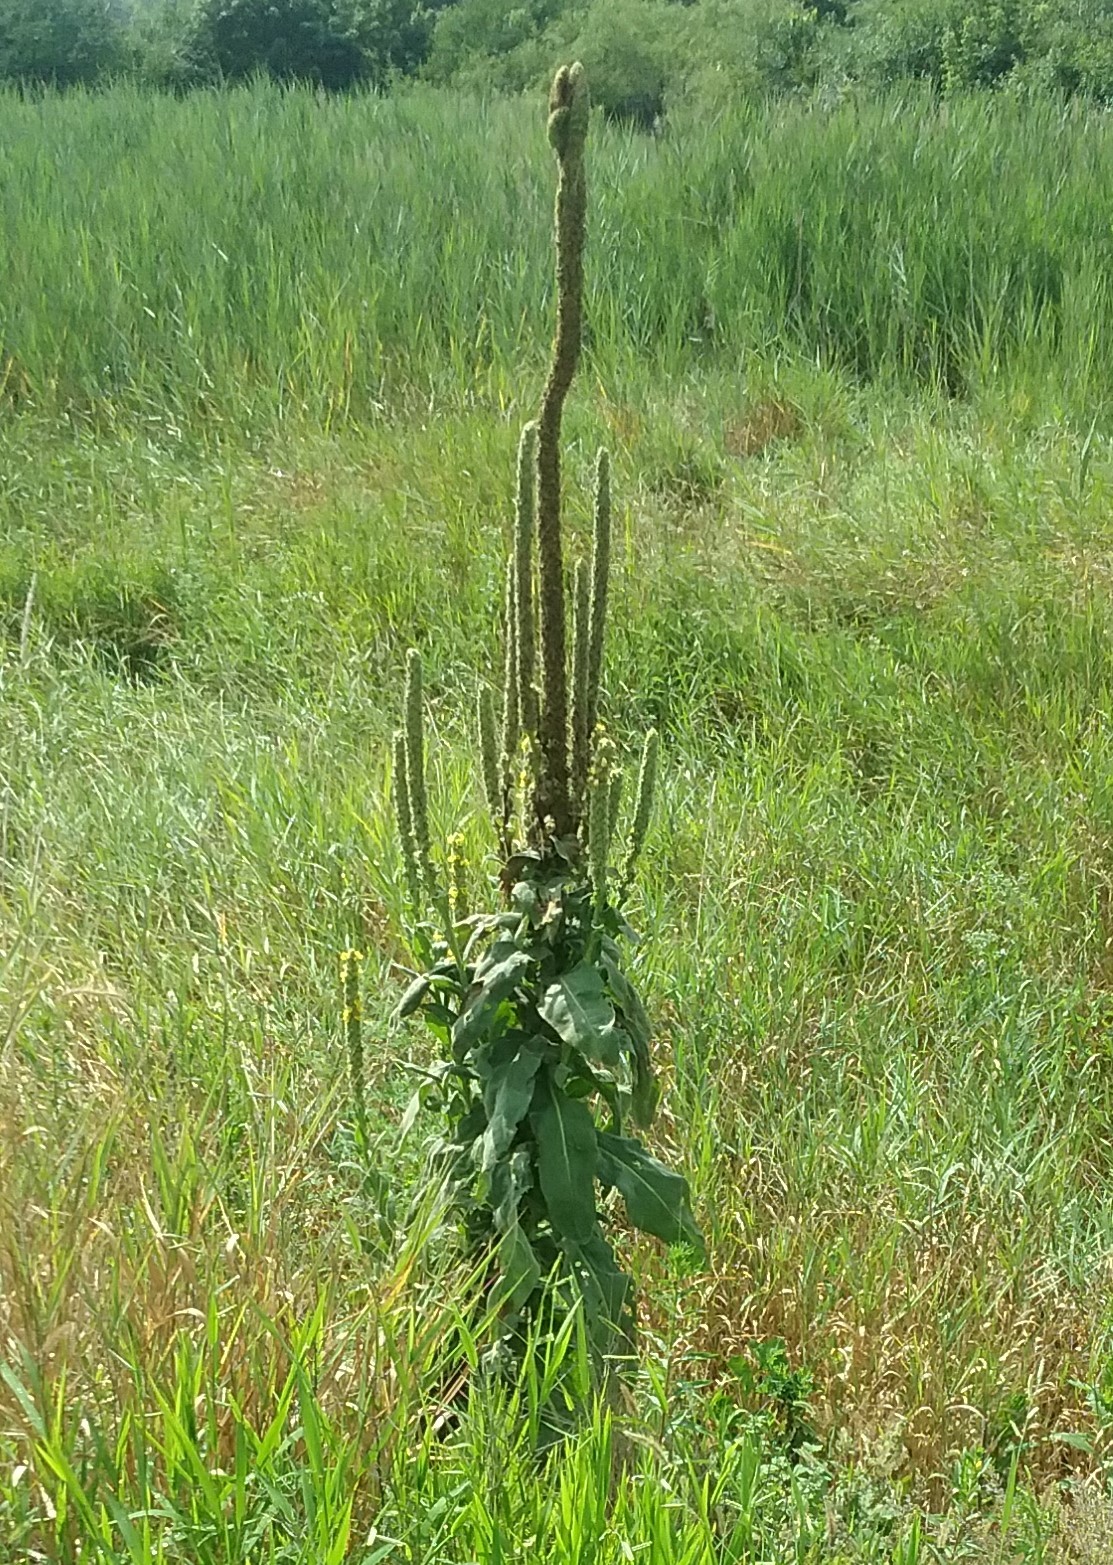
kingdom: Plantae
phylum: Tracheophyta
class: Magnoliopsida
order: Lamiales
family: Scrophulariaceae
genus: Verbascum
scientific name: Verbascum thapsus
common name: Common mullein
